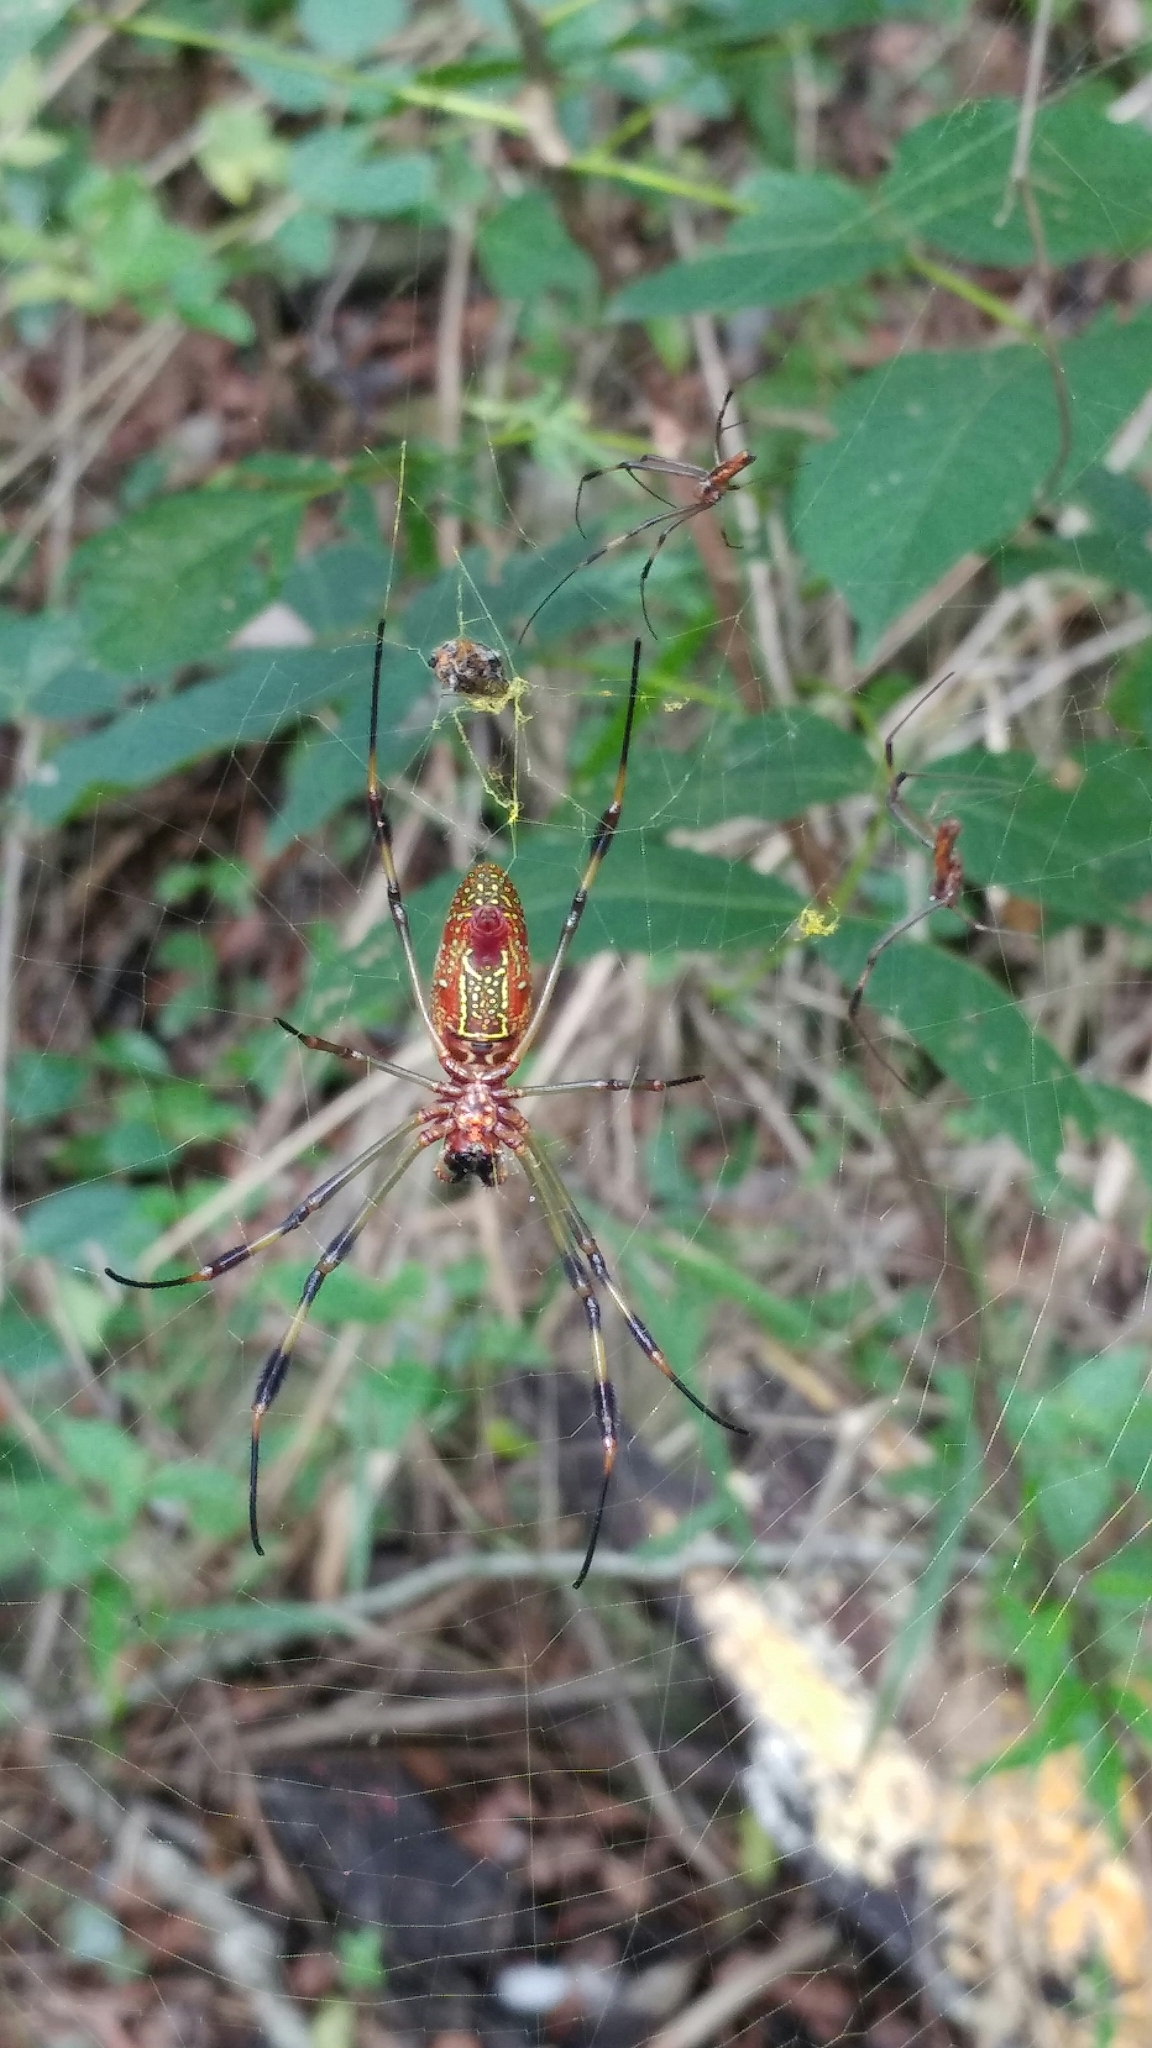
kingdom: Animalia
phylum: Arthropoda
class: Arachnida
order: Araneae
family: Araneidae
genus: Trichonephila
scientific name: Trichonephila clavipes
